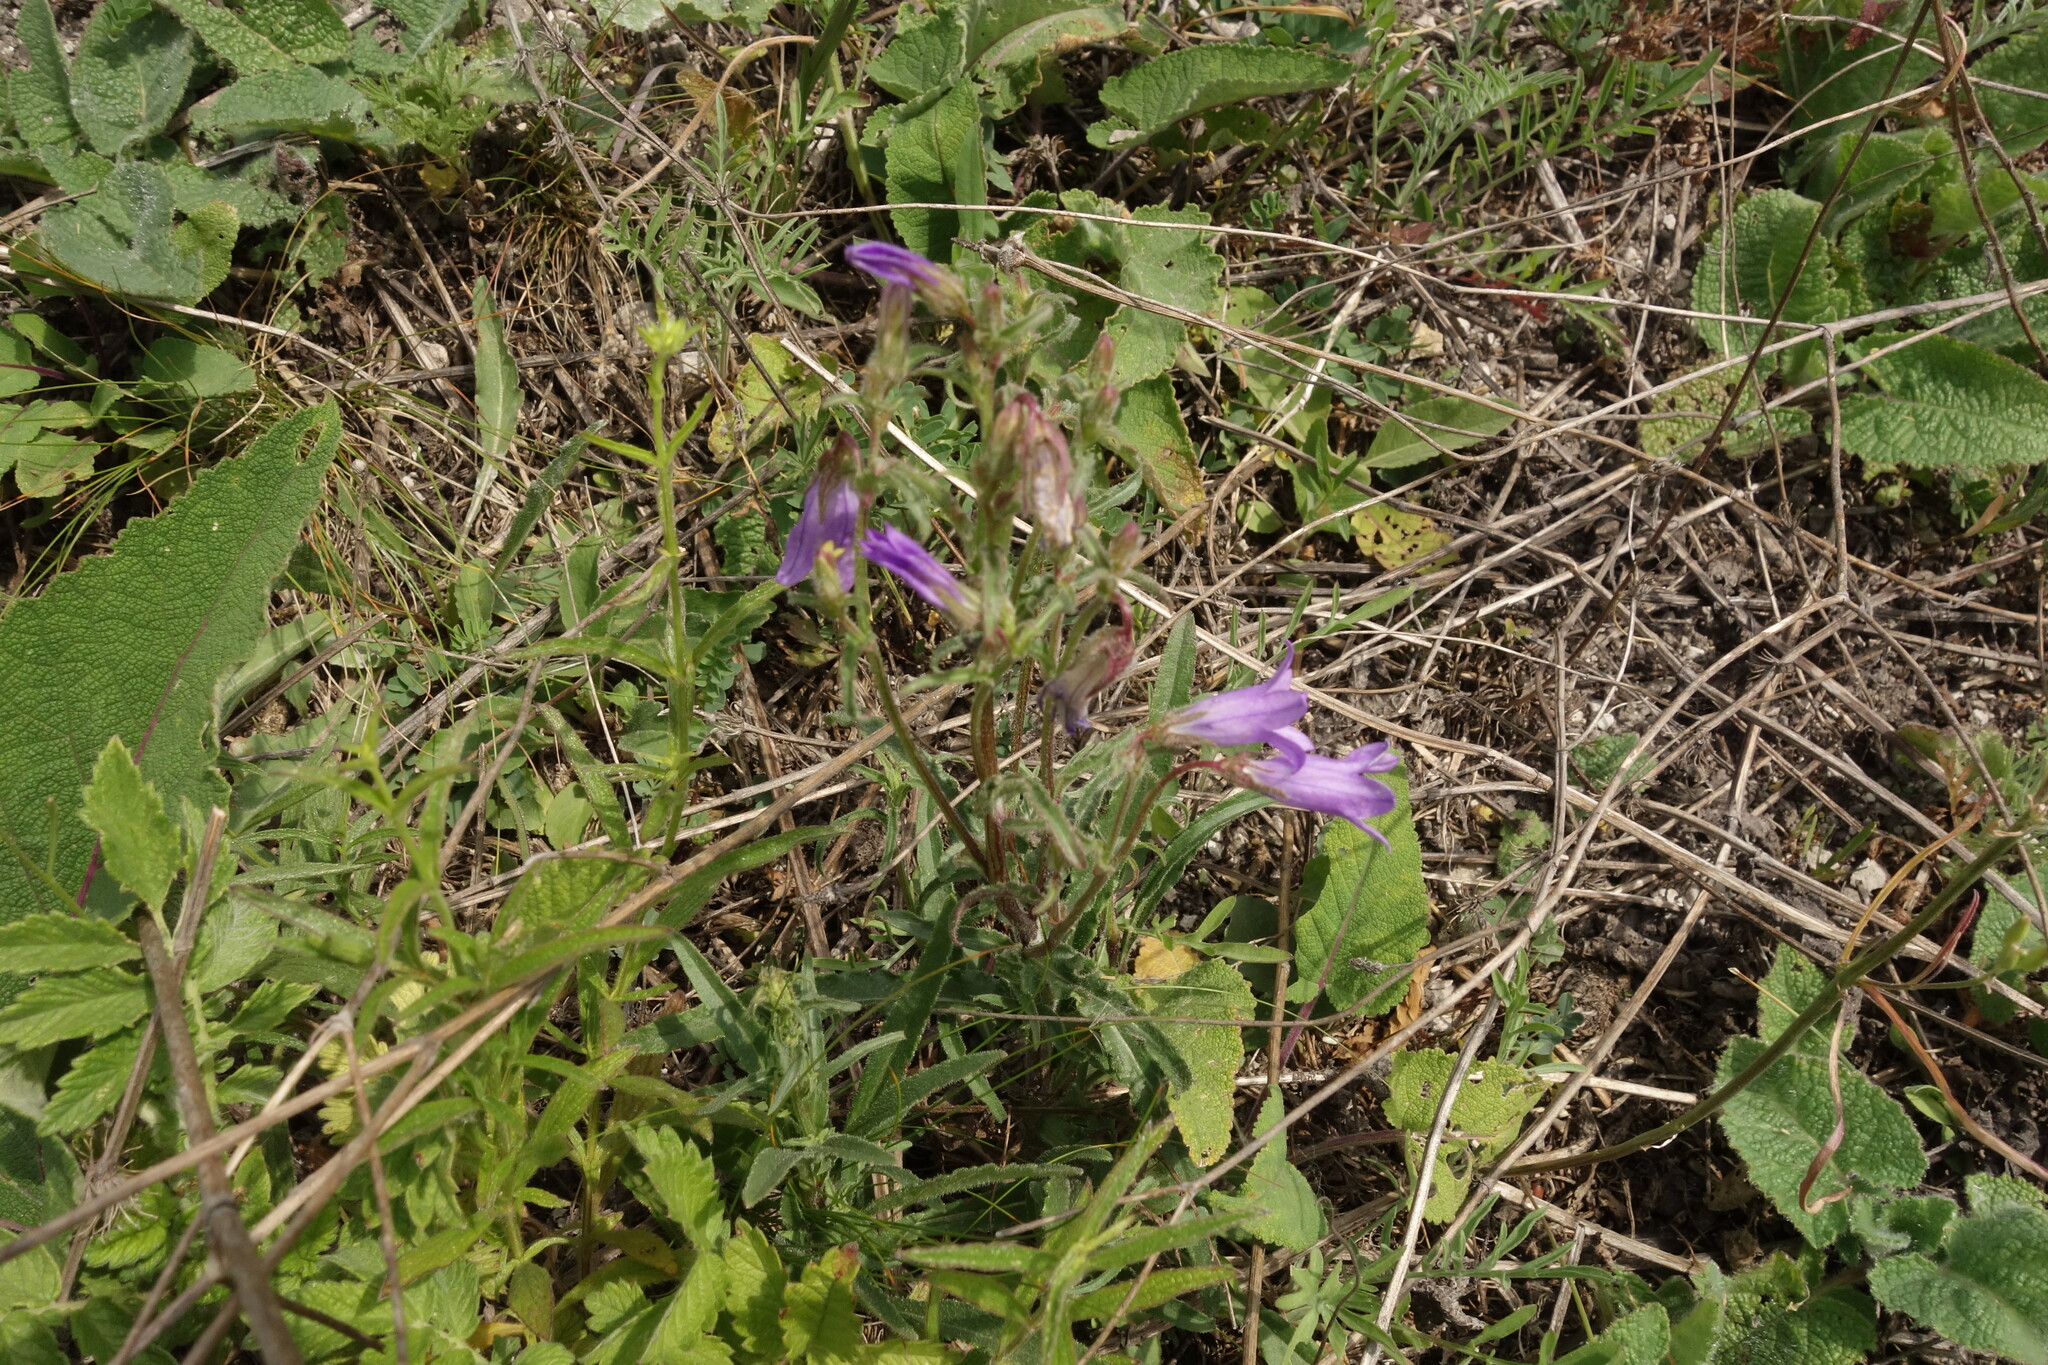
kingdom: Plantae
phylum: Tracheophyta
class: Magnoliopsida
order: Asterales
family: Campanulaceae
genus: Campanula
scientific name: Campanula sibirica
